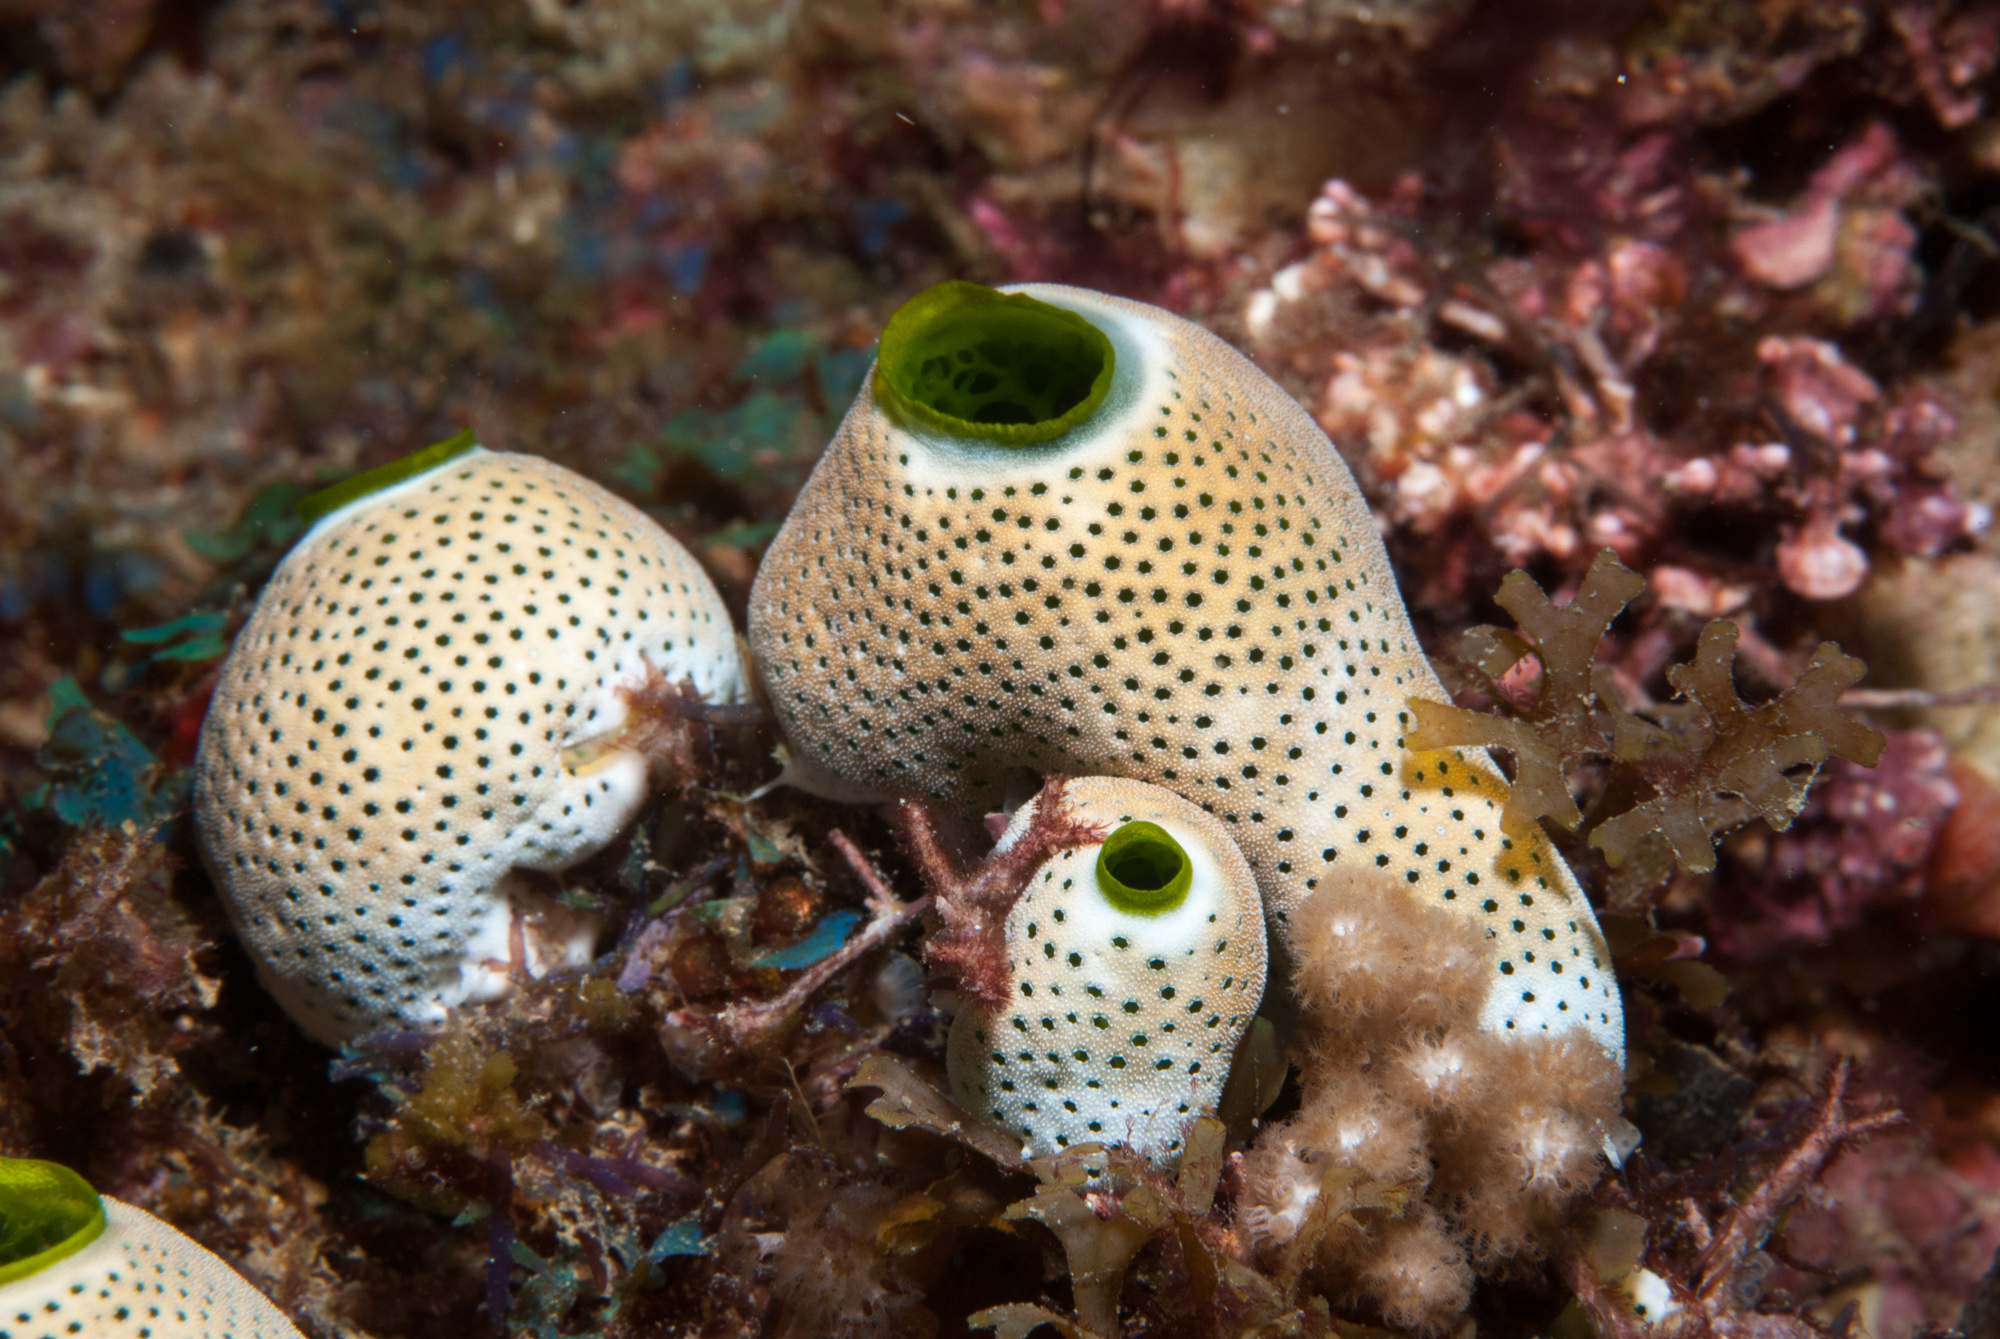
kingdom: Animalia
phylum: Chordata
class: Ascidiacea
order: Aplousobranchia
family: Didemnidae
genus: Didemnum
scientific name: Didemnum molle
